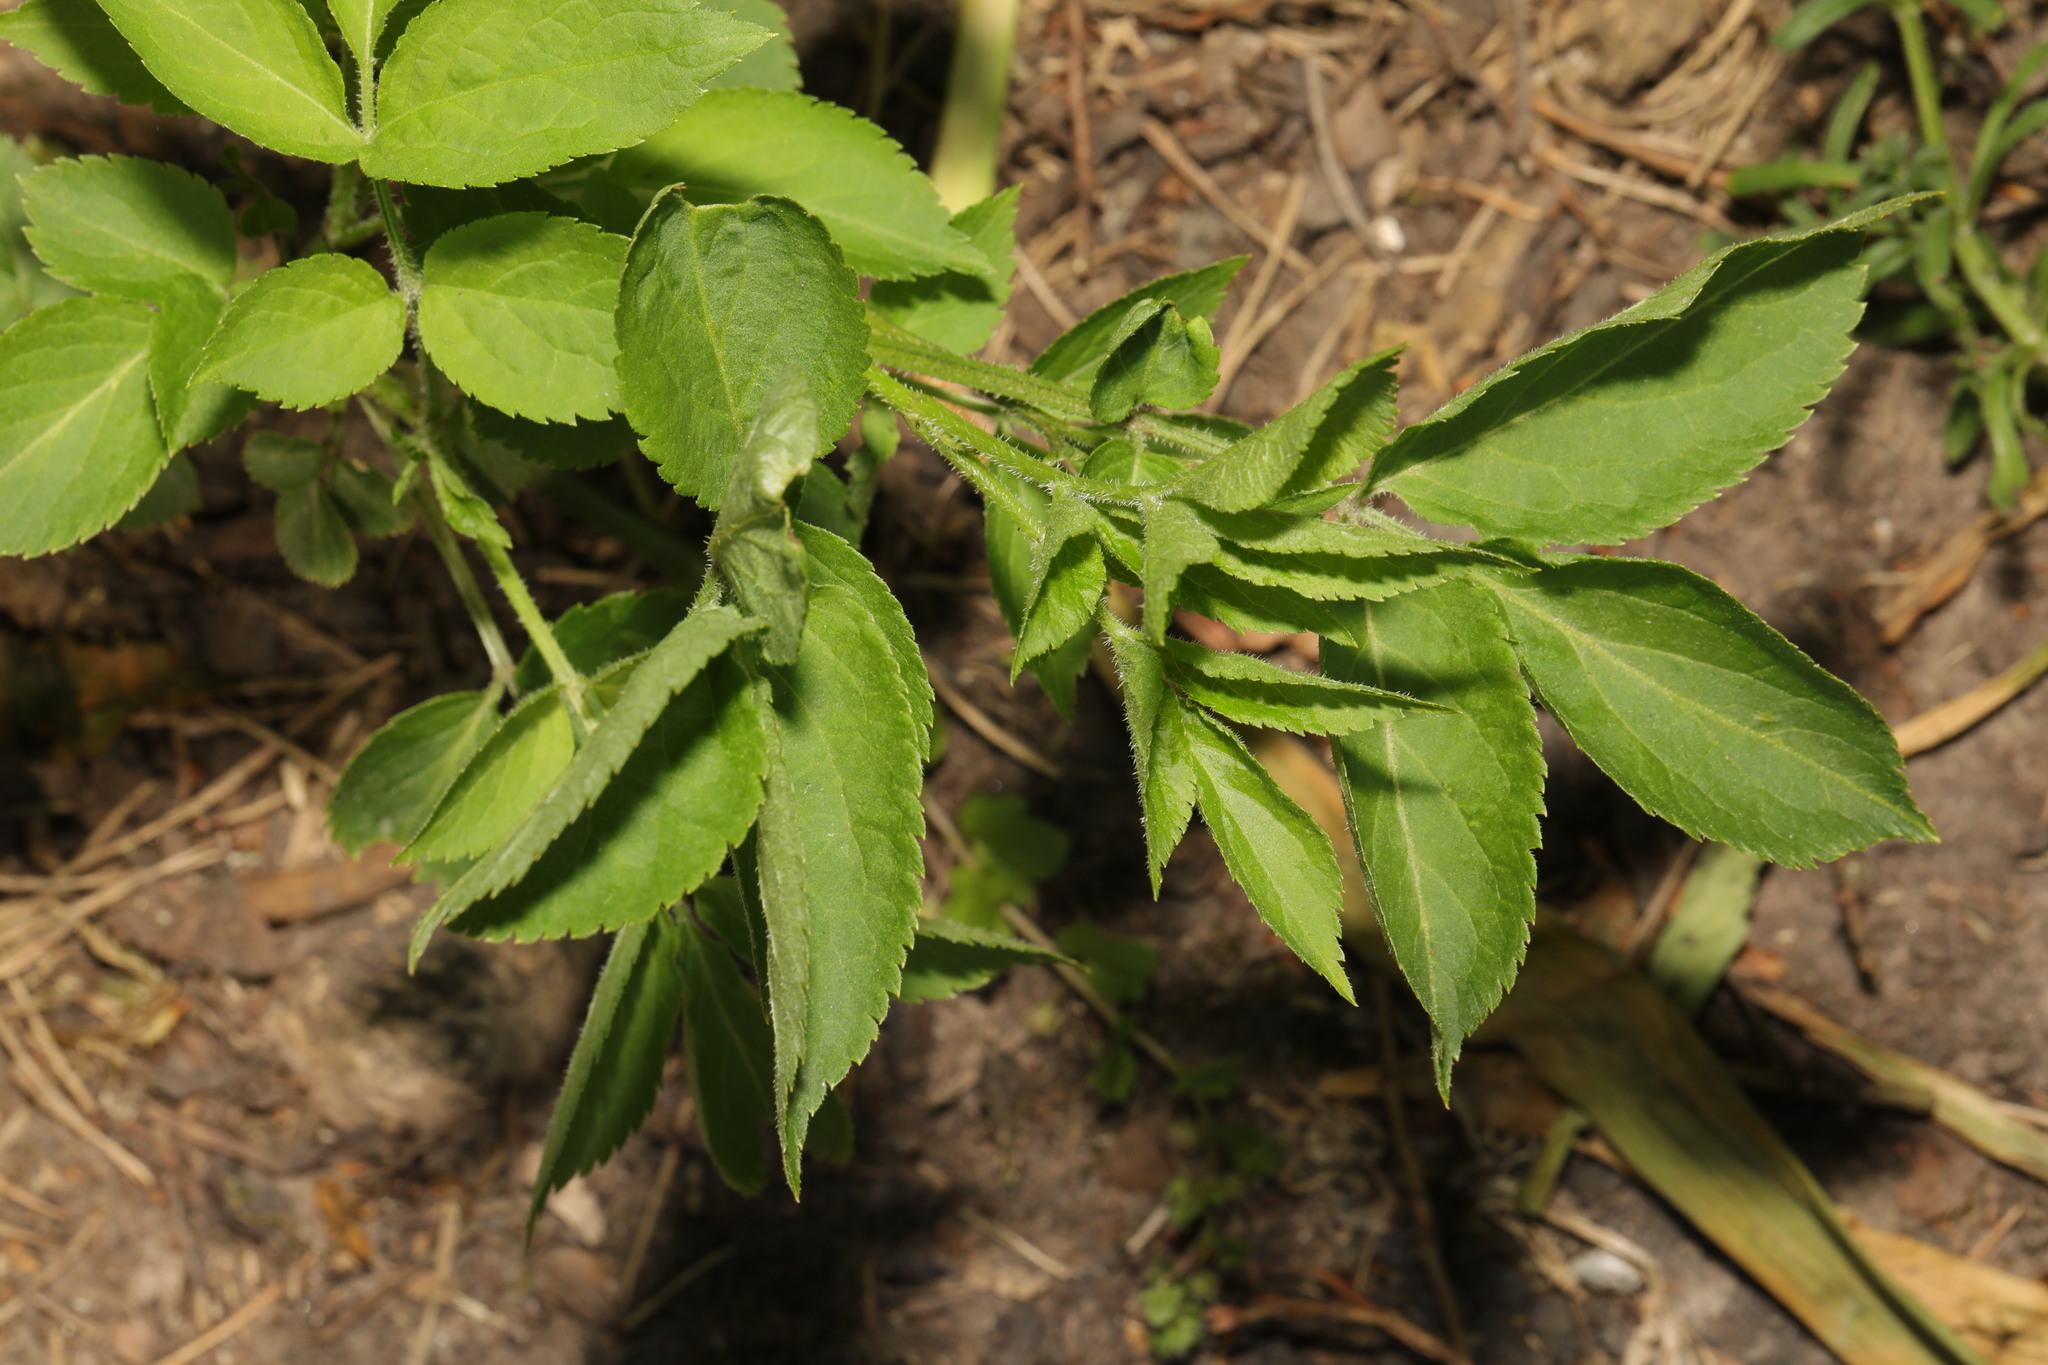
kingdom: Plantae
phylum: Tracheophyta
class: Magnoliopsida
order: Dipsacales
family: Viburnaceae
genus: Sambucus
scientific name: Sambucus nigra
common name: Elder
